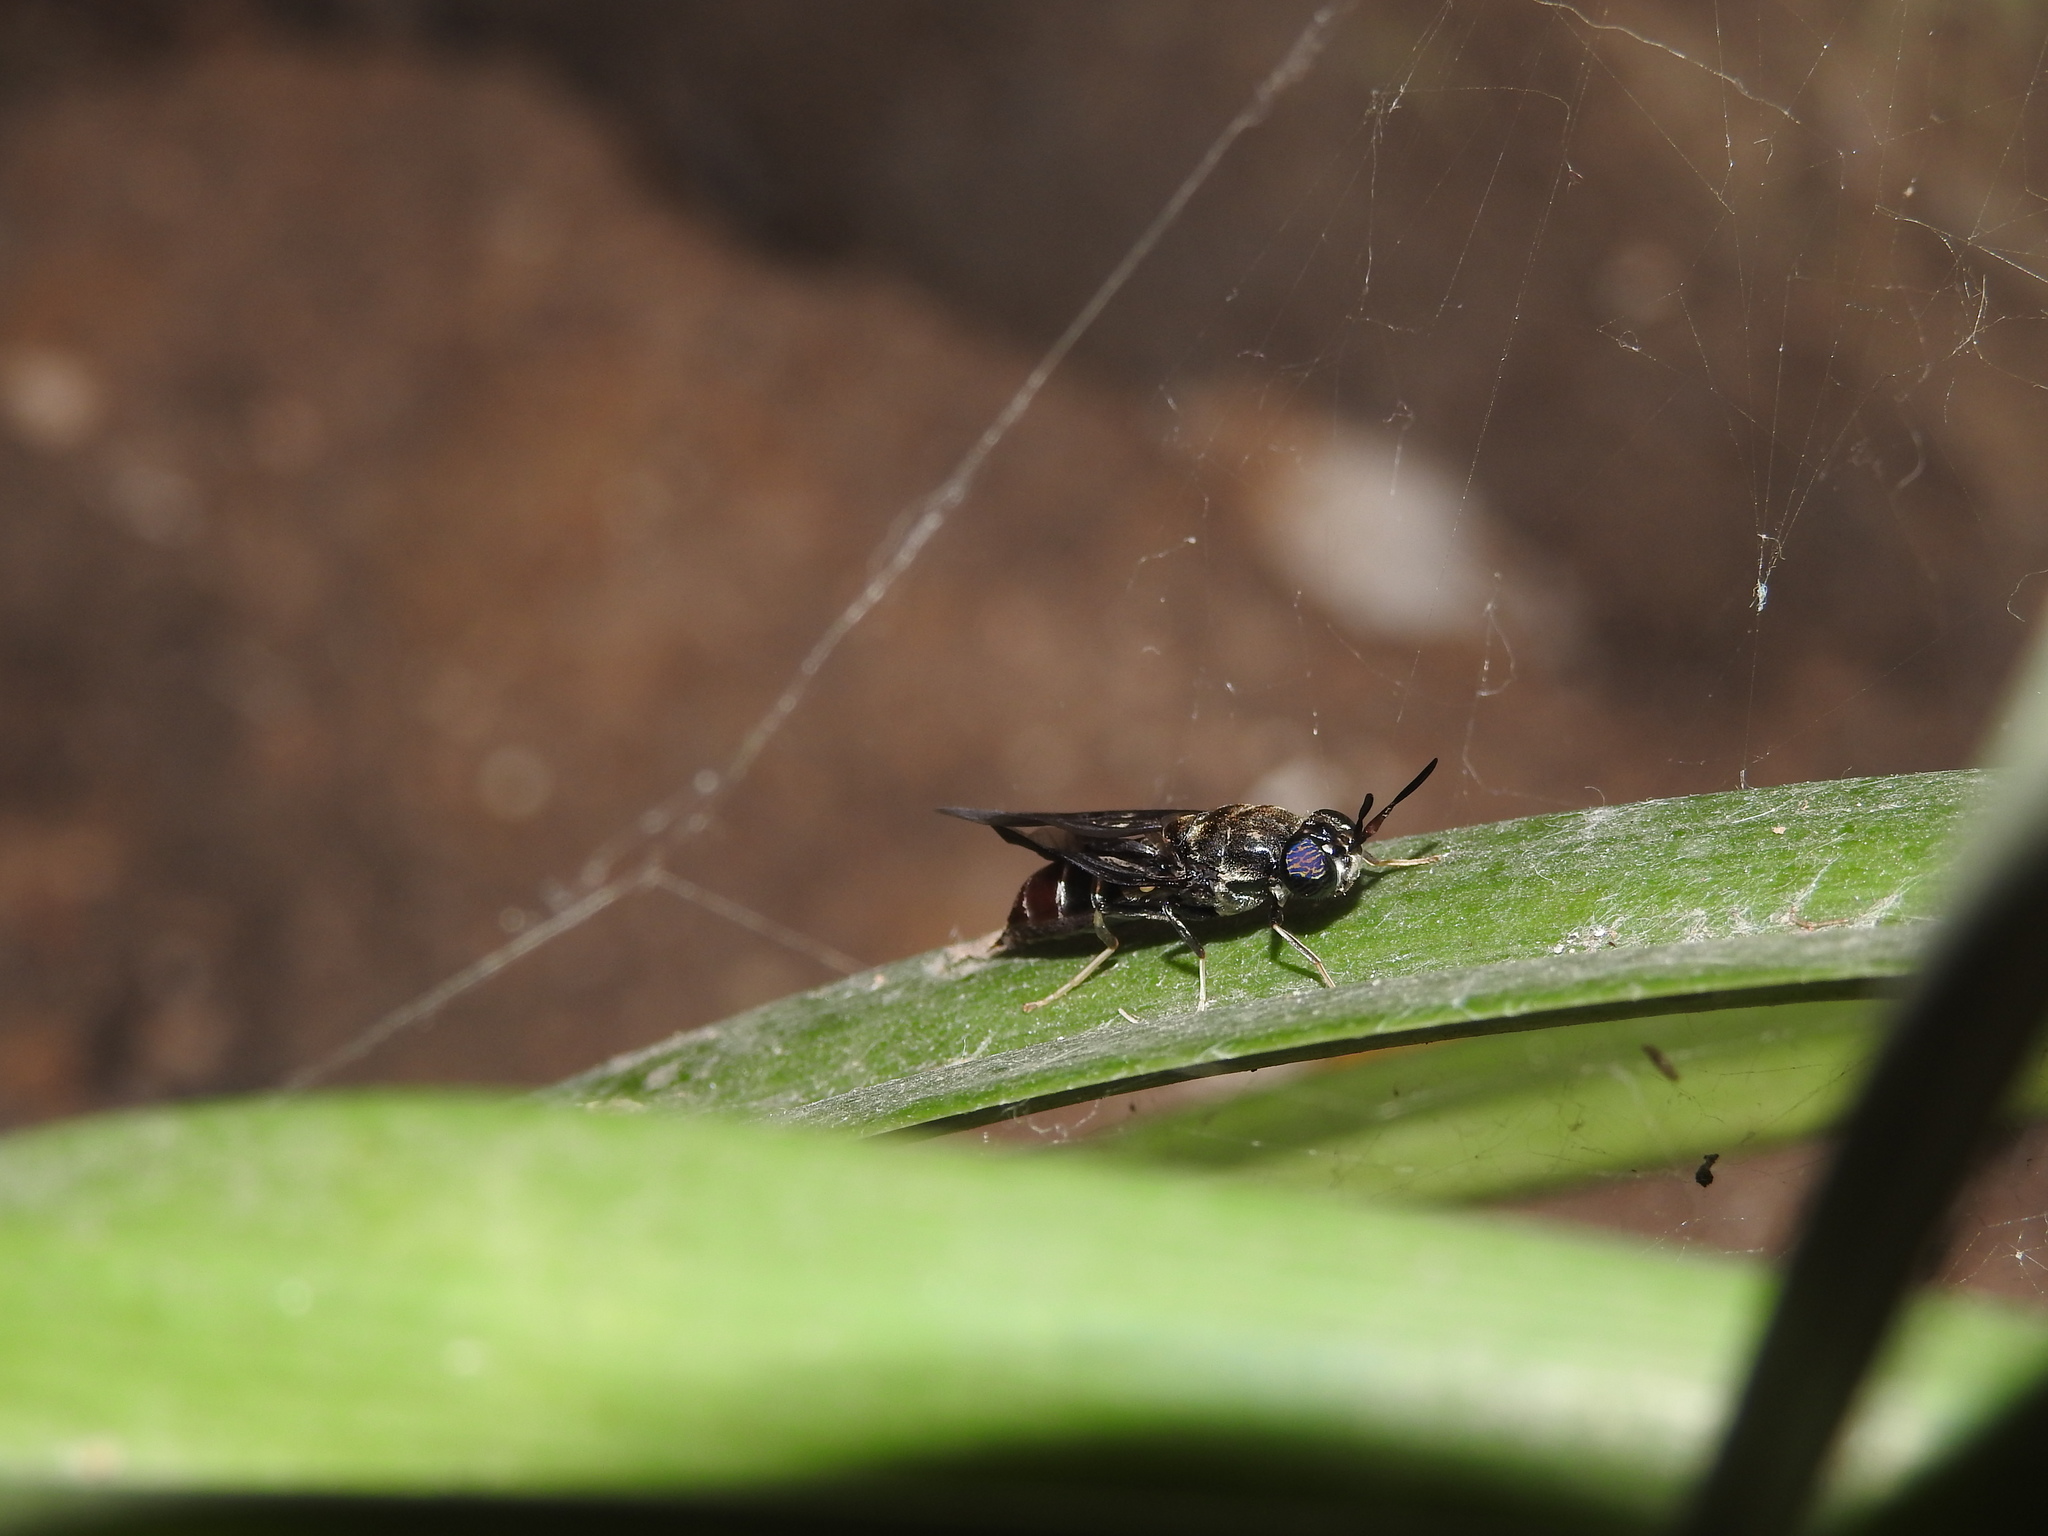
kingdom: Animalia
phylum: Arthropoda
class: Insecta
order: Diptera
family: Stratiomyidae
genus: Hermetia
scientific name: Hermetia illucens
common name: Black soldier fly
